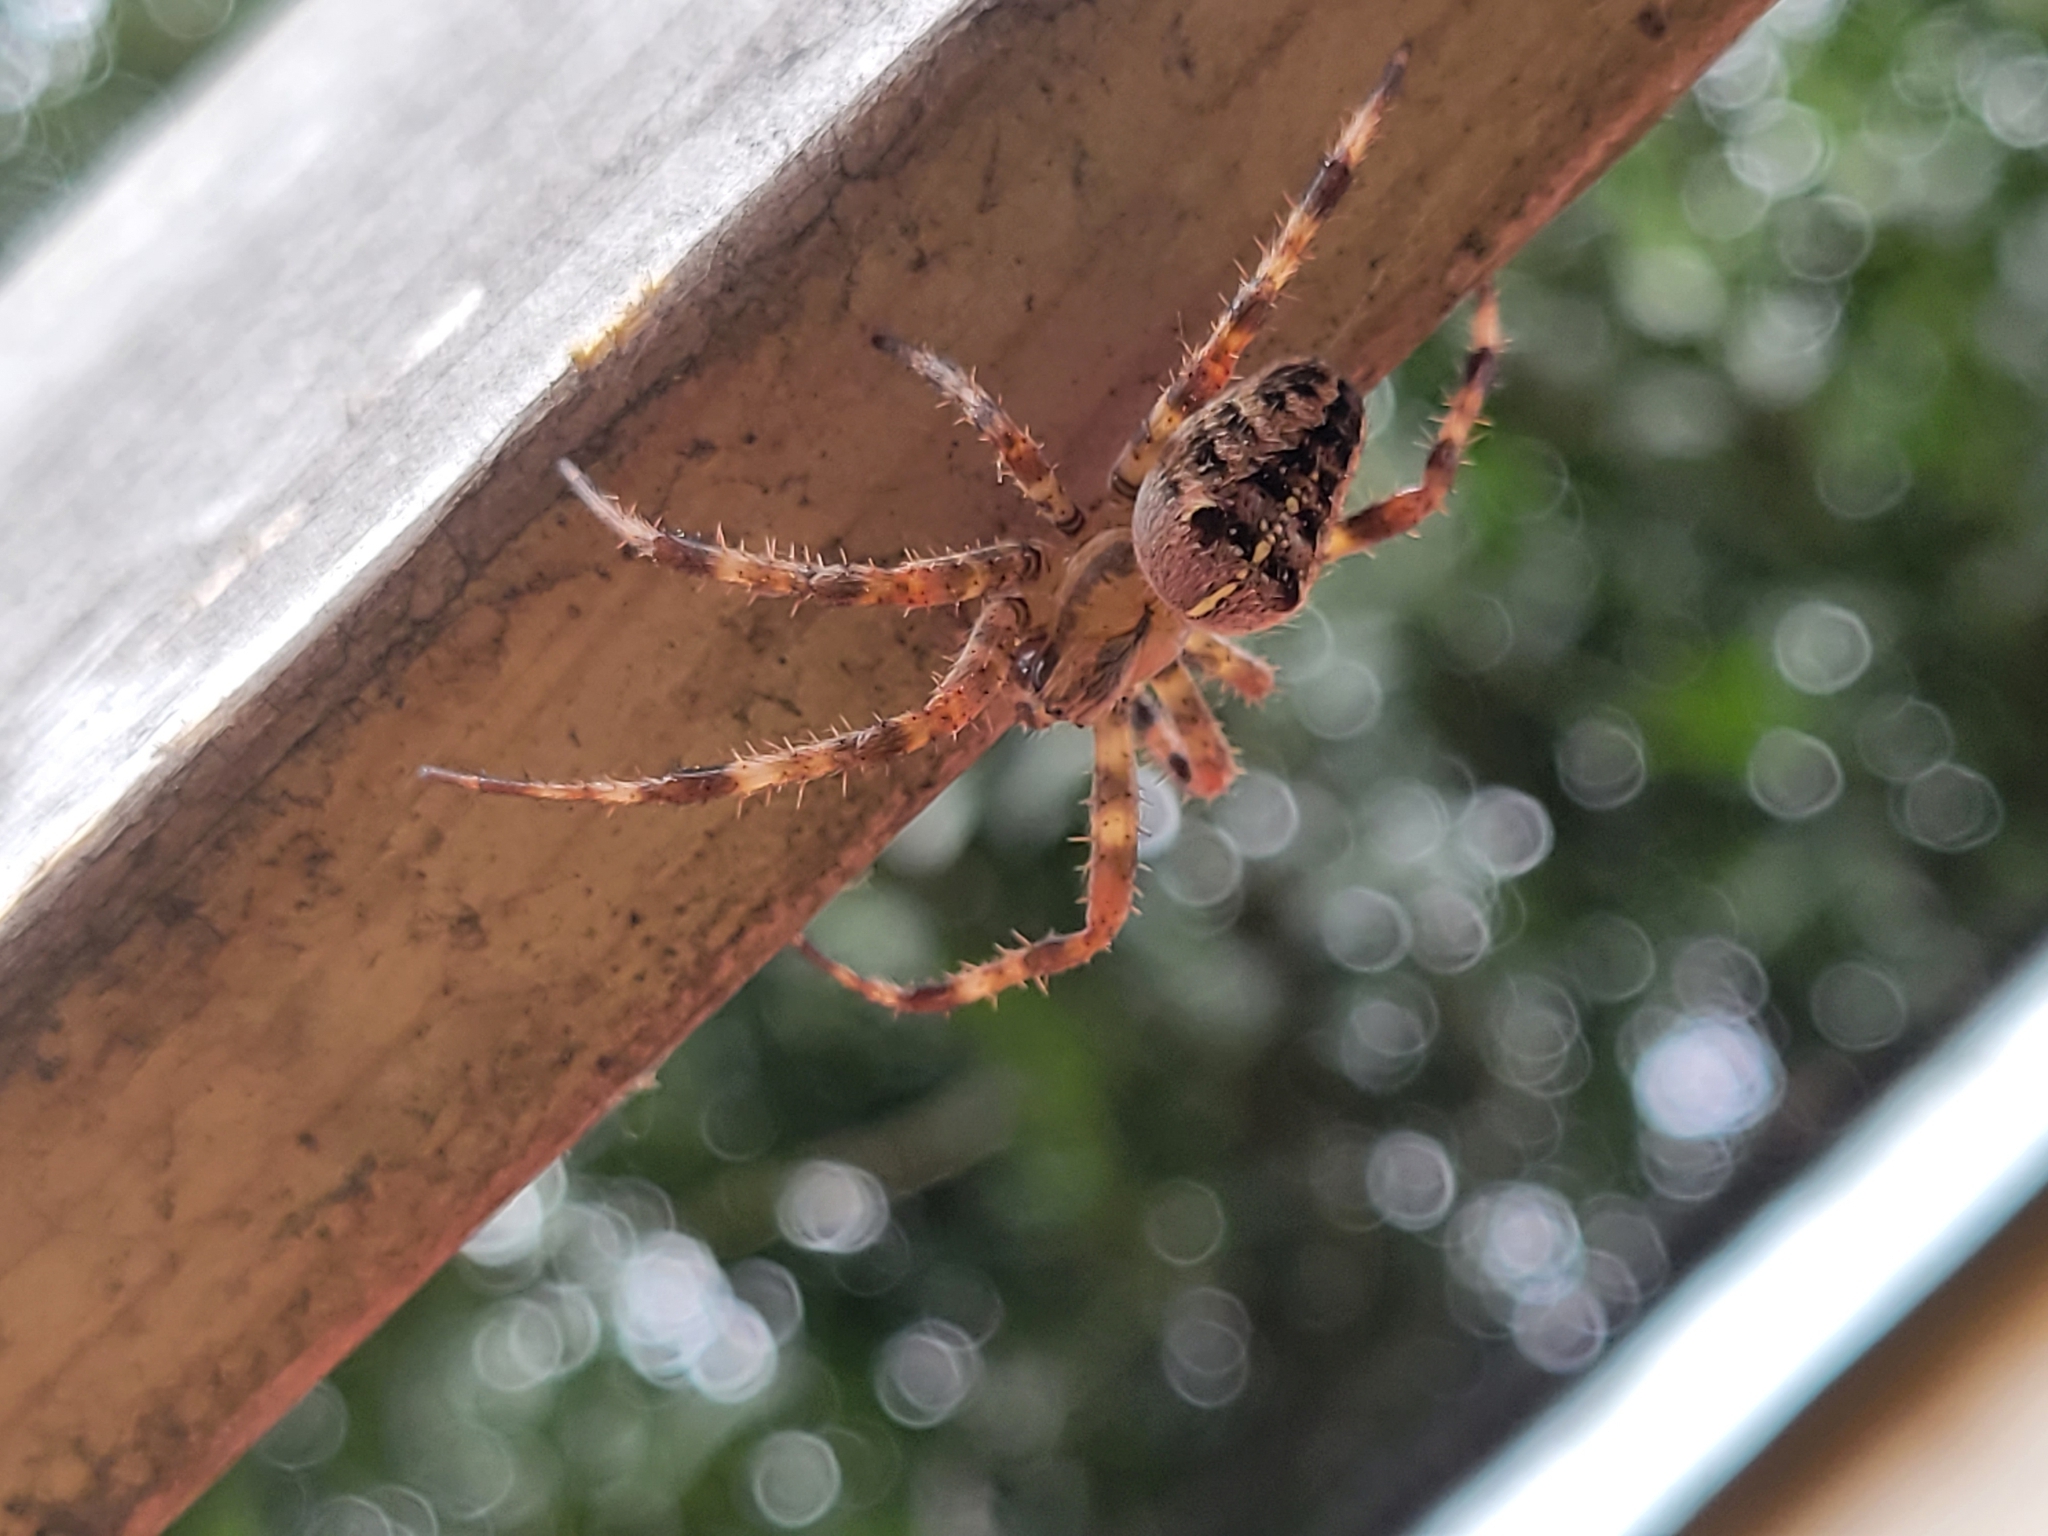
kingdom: Animalia
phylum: Arthropoda
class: Arachnida
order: Araneae
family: Araneidae
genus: Araneus
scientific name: Araneus diadematus
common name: Cross orbweaver
